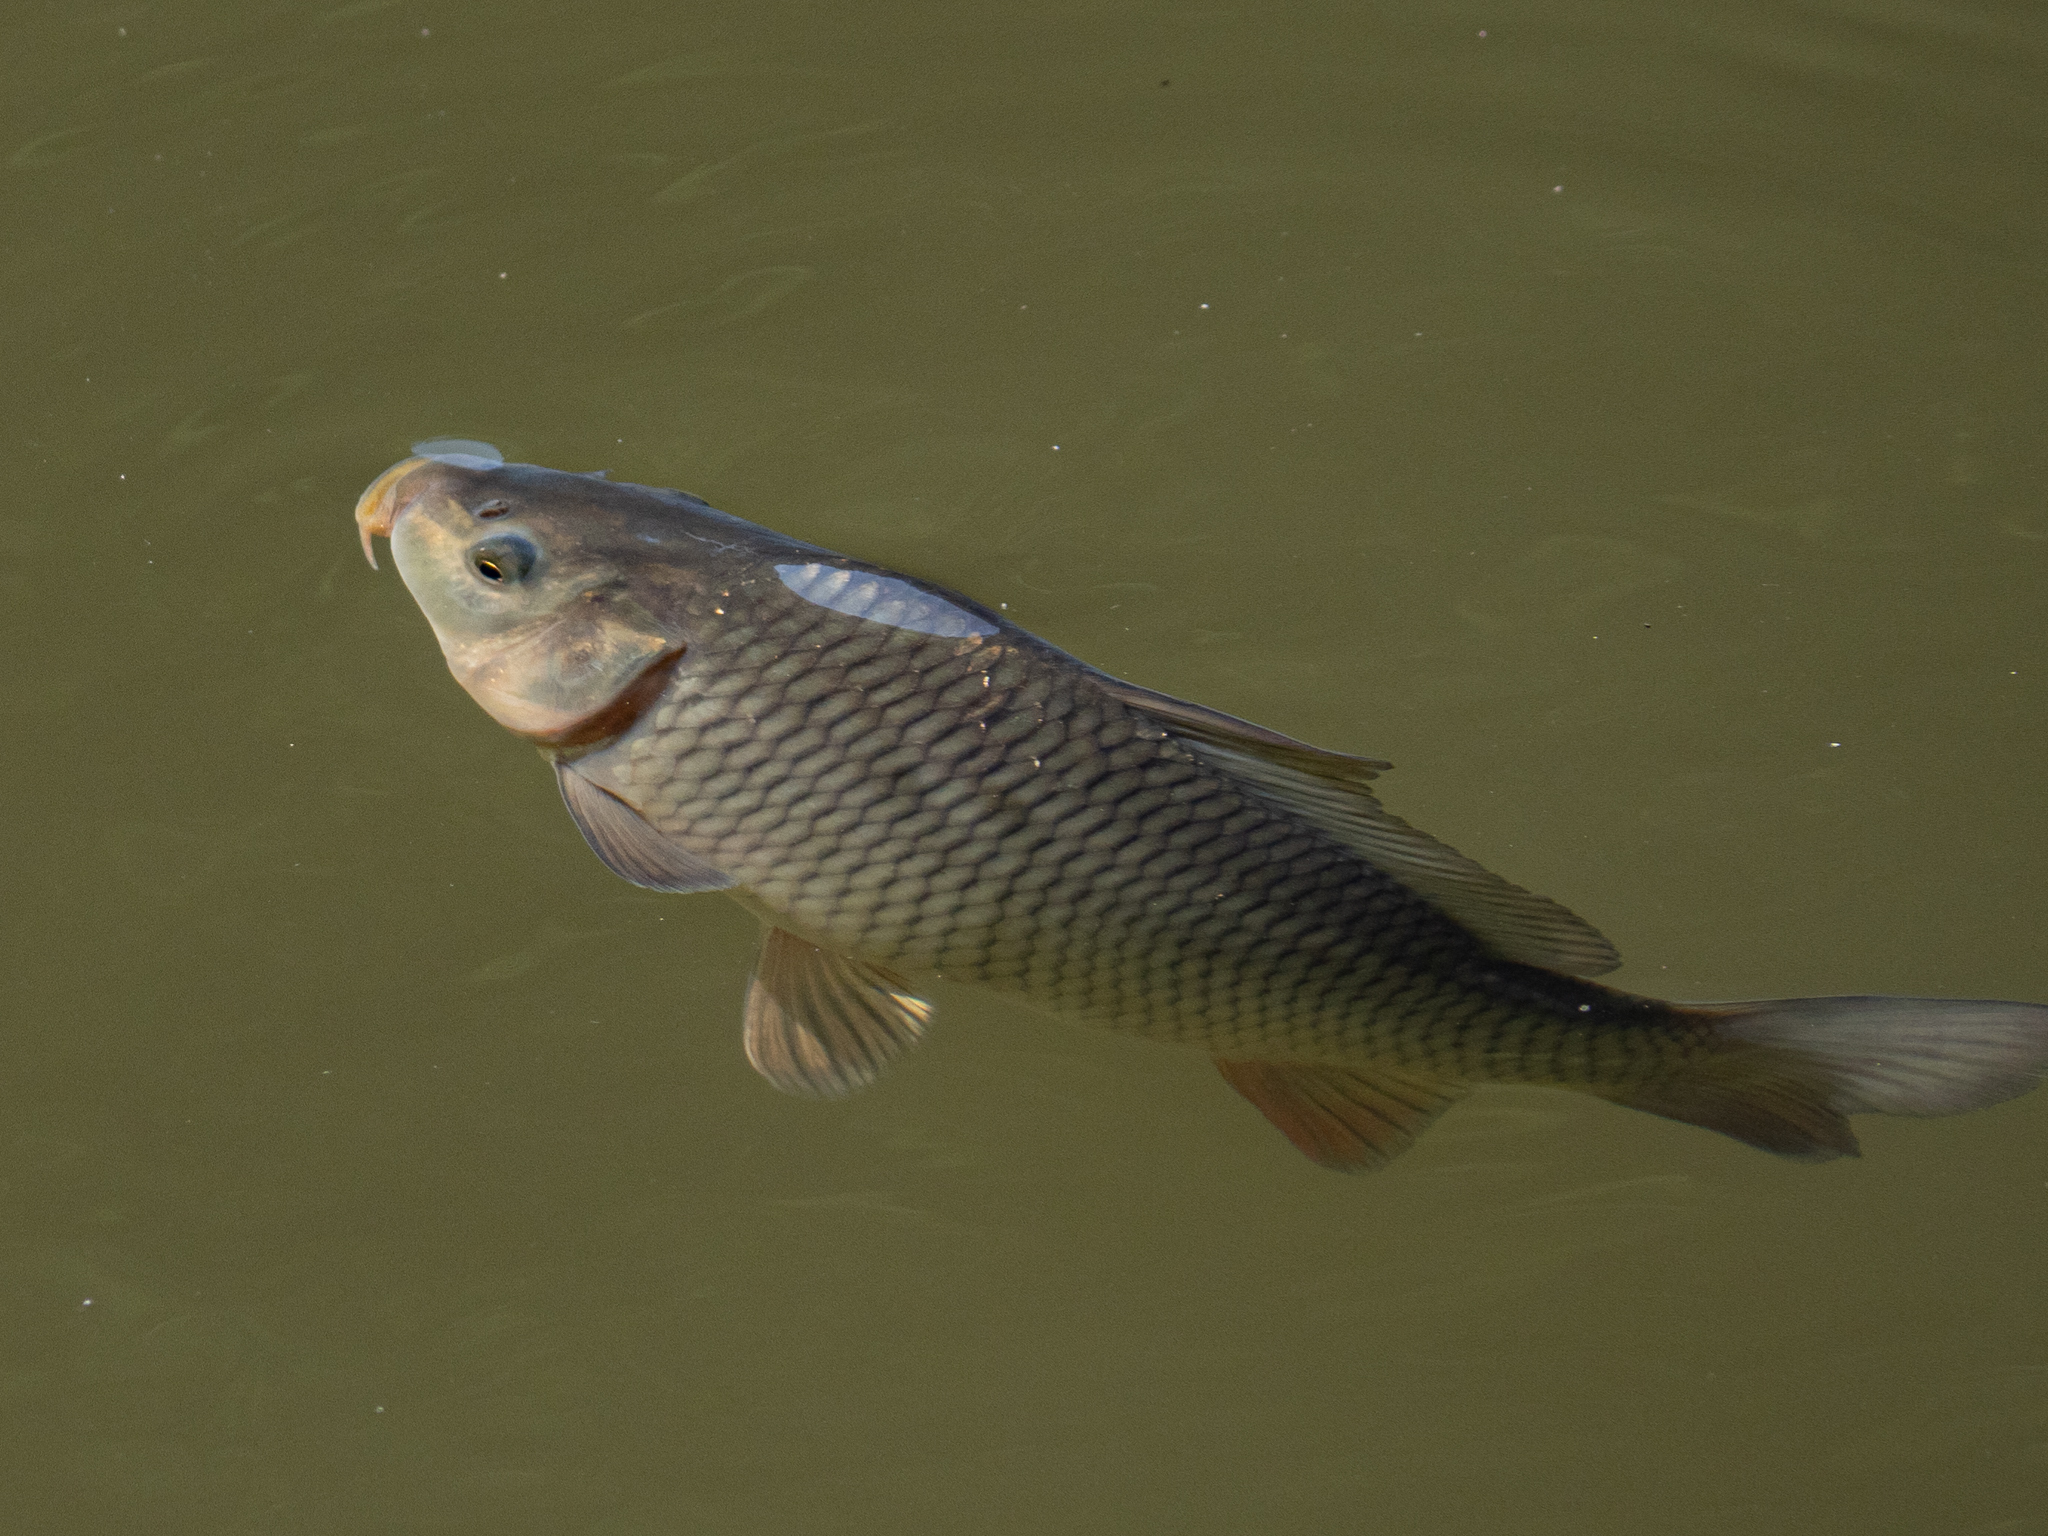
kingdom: Animalia
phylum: Chordata
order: Cypriniformes
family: Cyprinidae
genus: Cyprinus
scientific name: Cyprinus carpio
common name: Common carp
